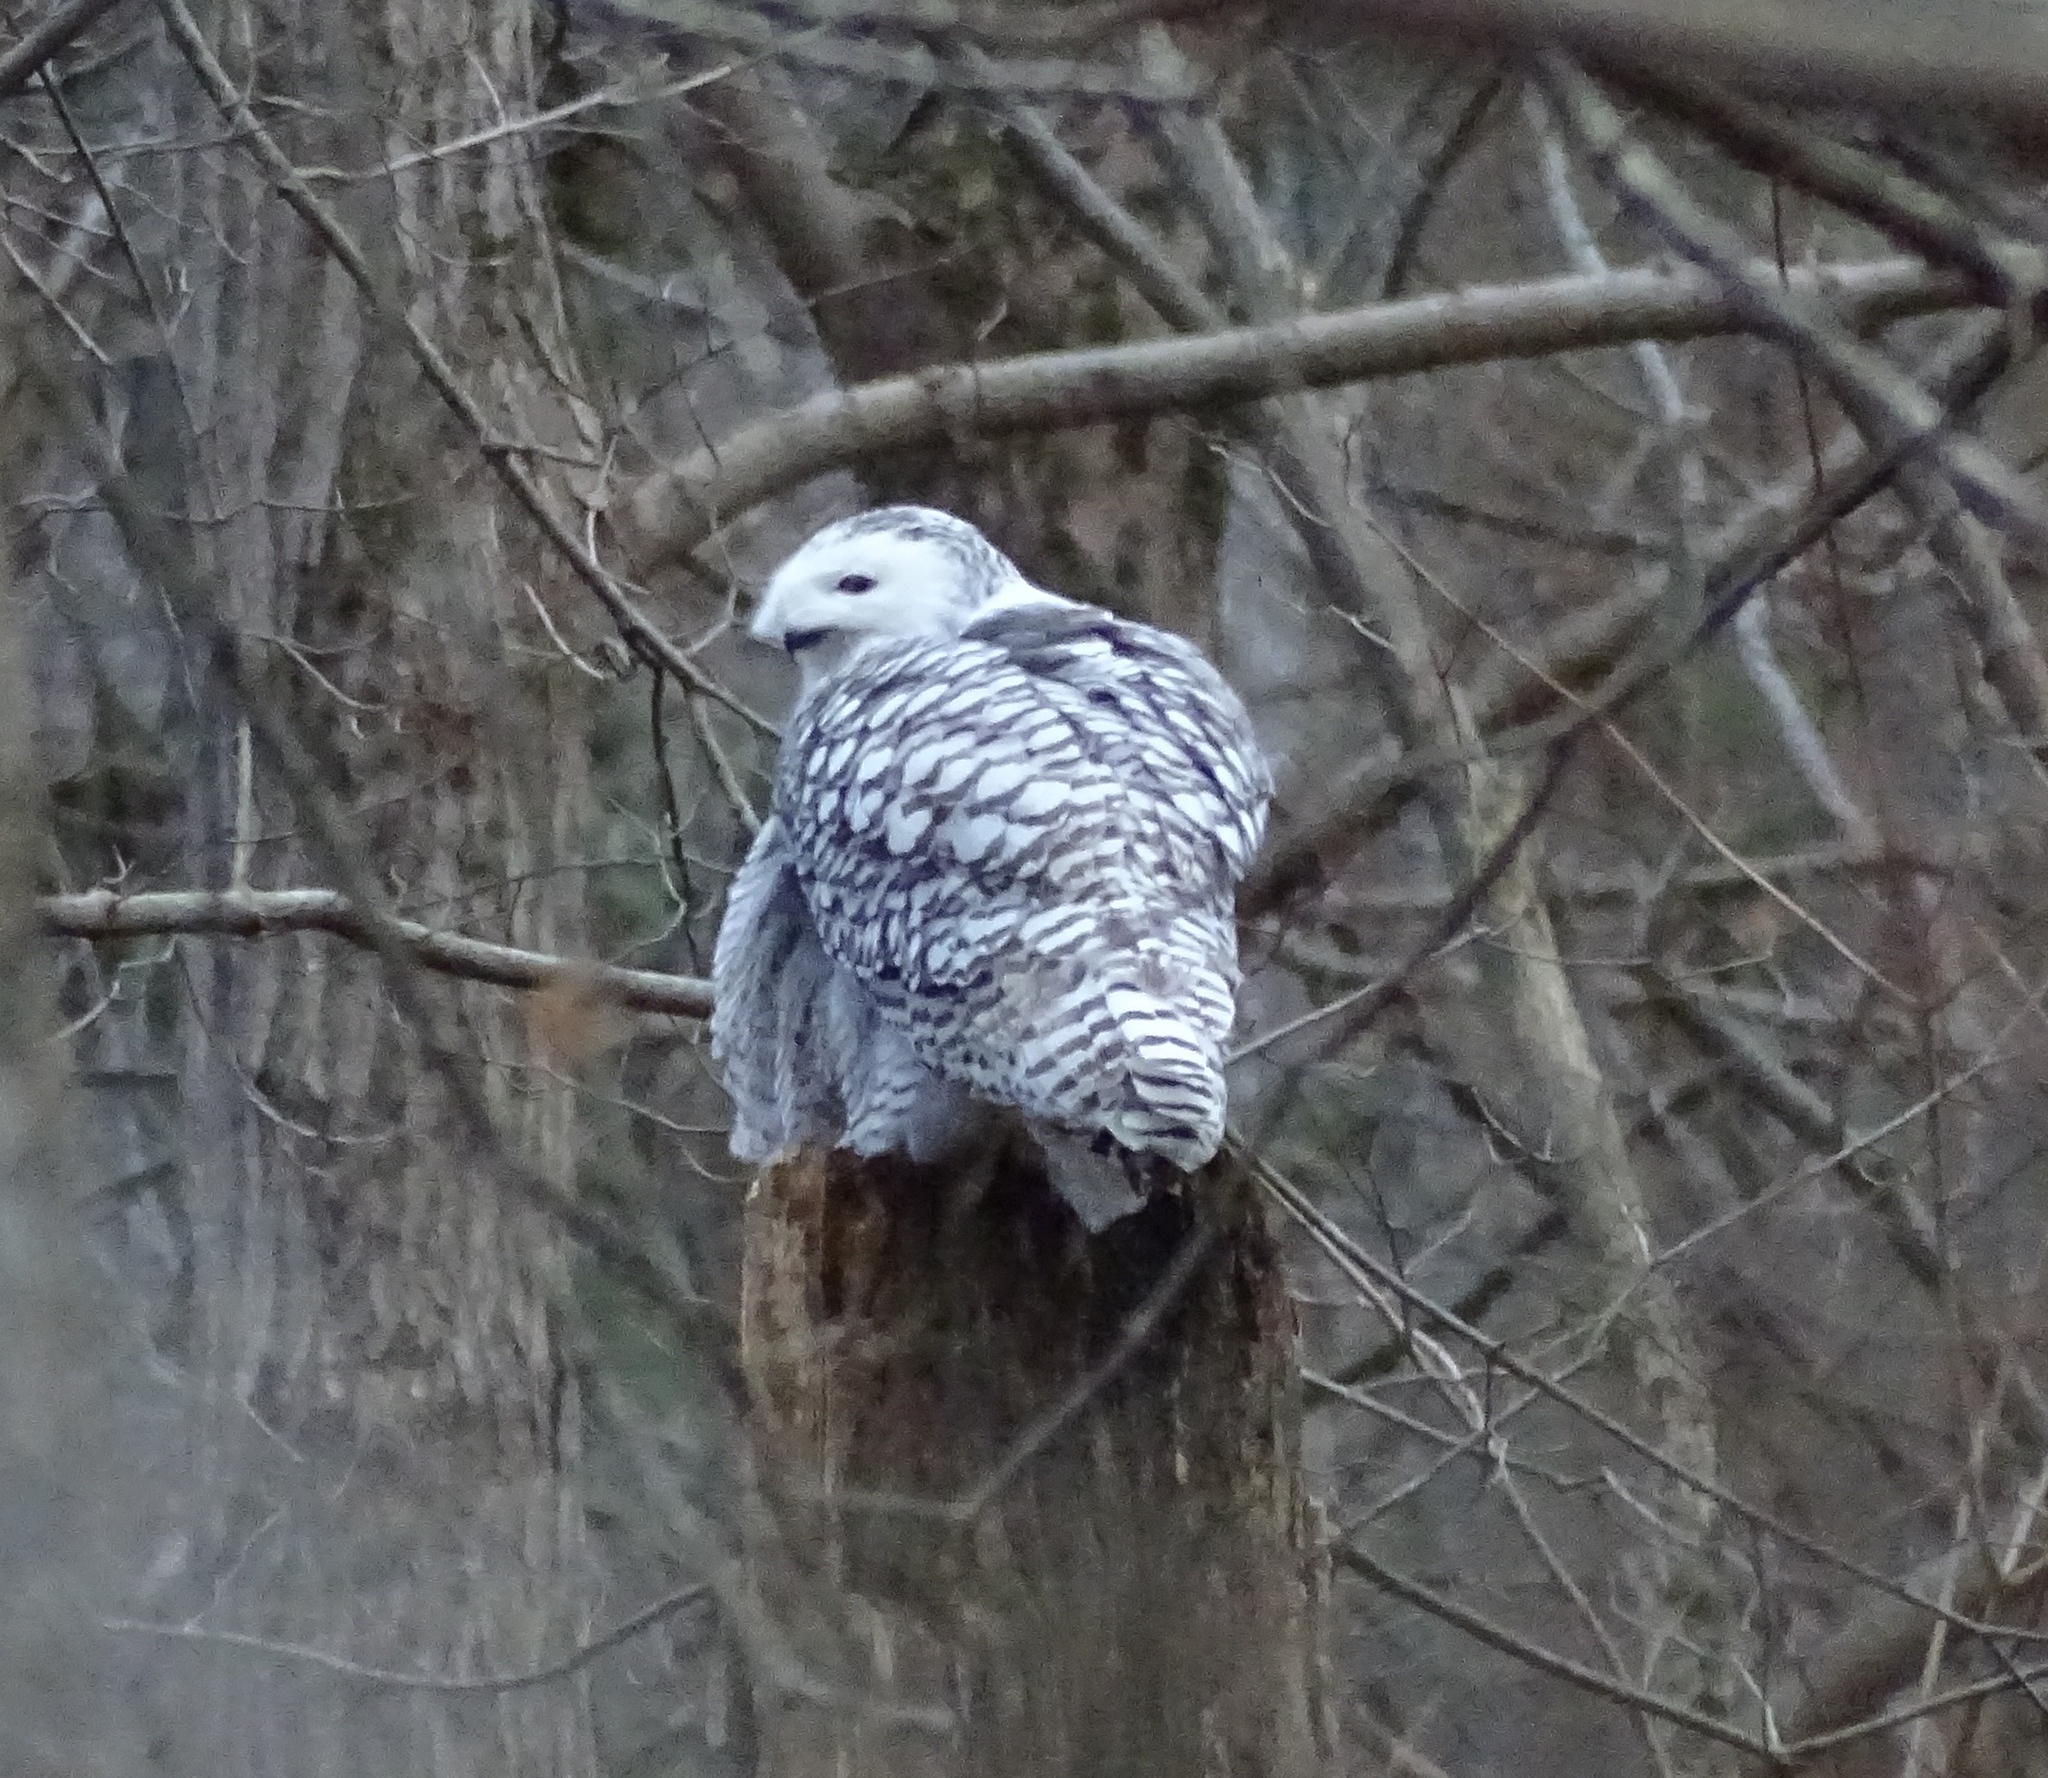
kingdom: Animalia
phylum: Chordata
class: Aves
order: Strigiformes
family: Strigidae
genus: Bubo
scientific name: Bubo scandiacus
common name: Snowy owl
